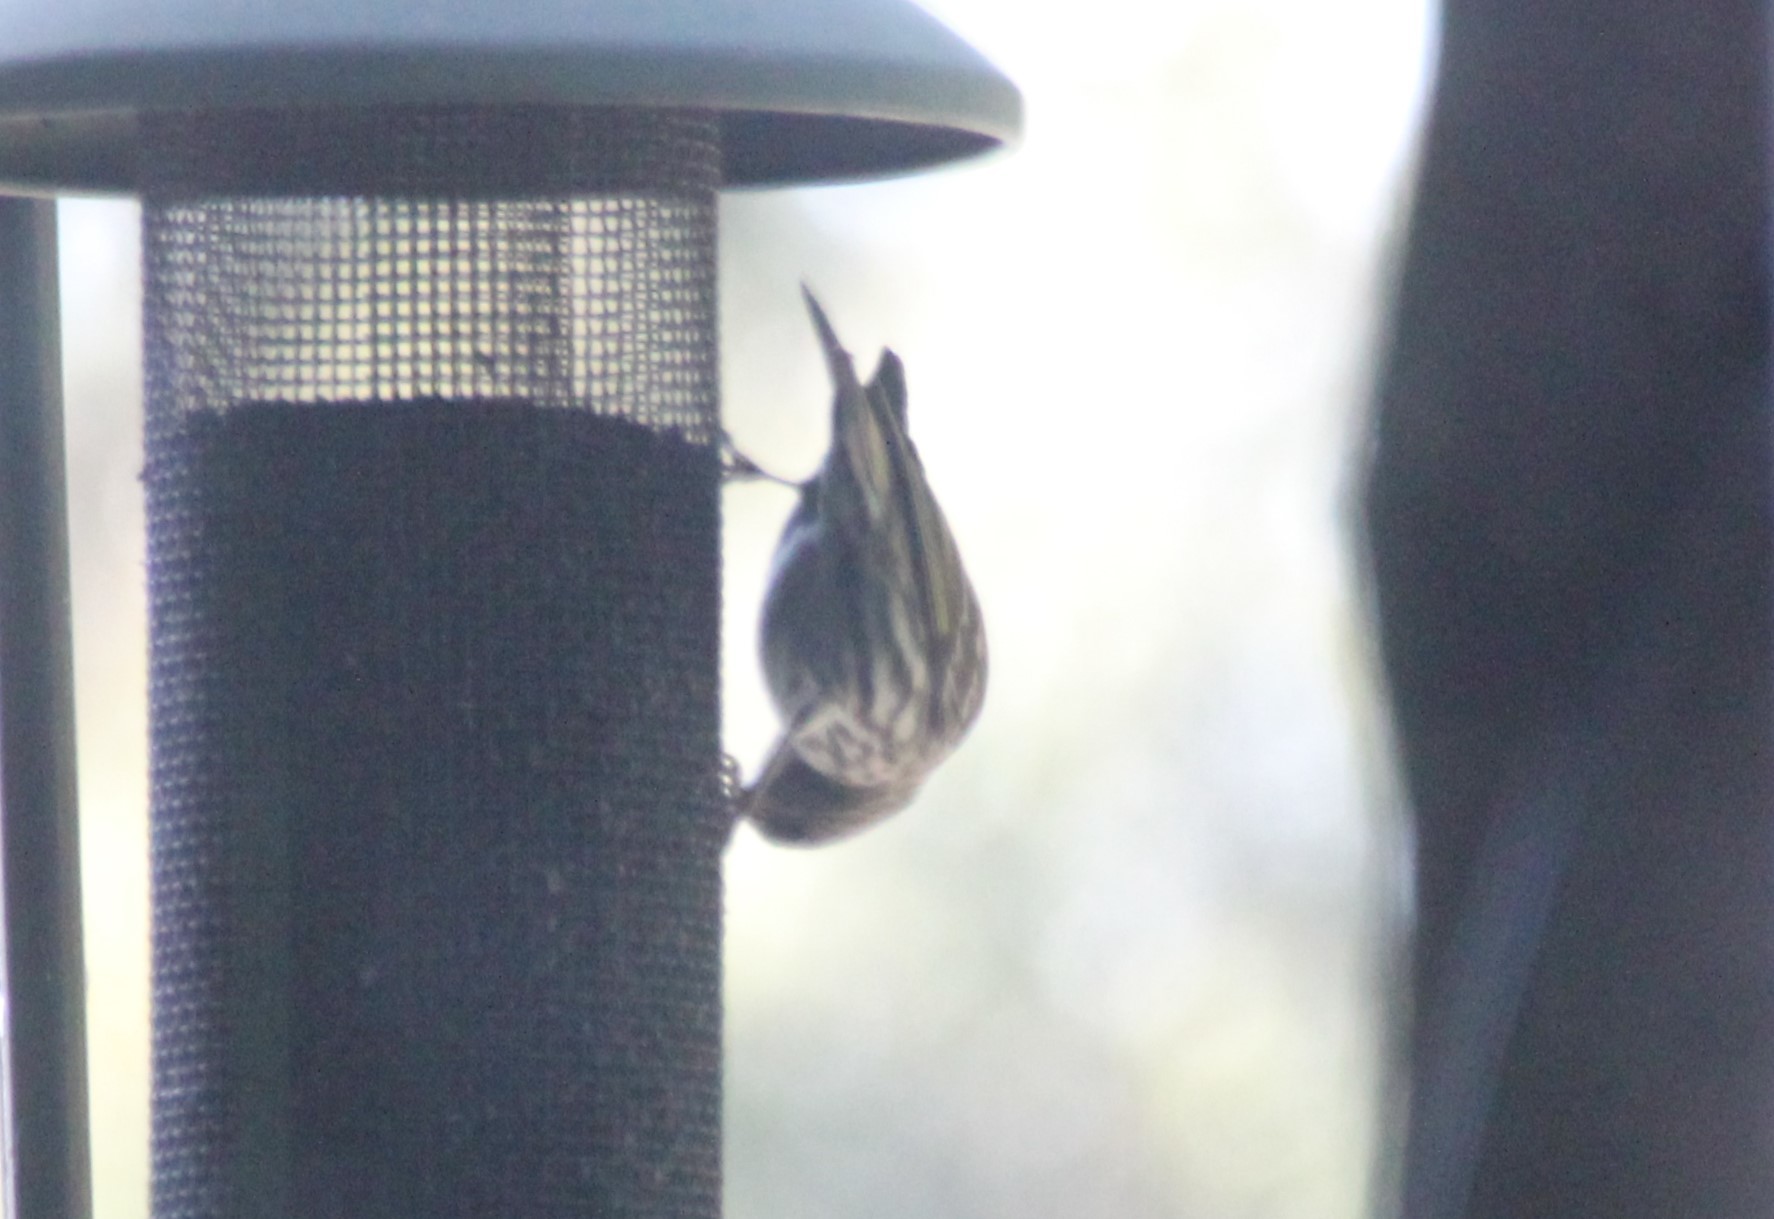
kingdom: Animalia
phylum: Chordata
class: Aves
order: Passeriformes
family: Fringillidae
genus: Spinus
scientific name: Spinus pinus
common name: Pine siskin
